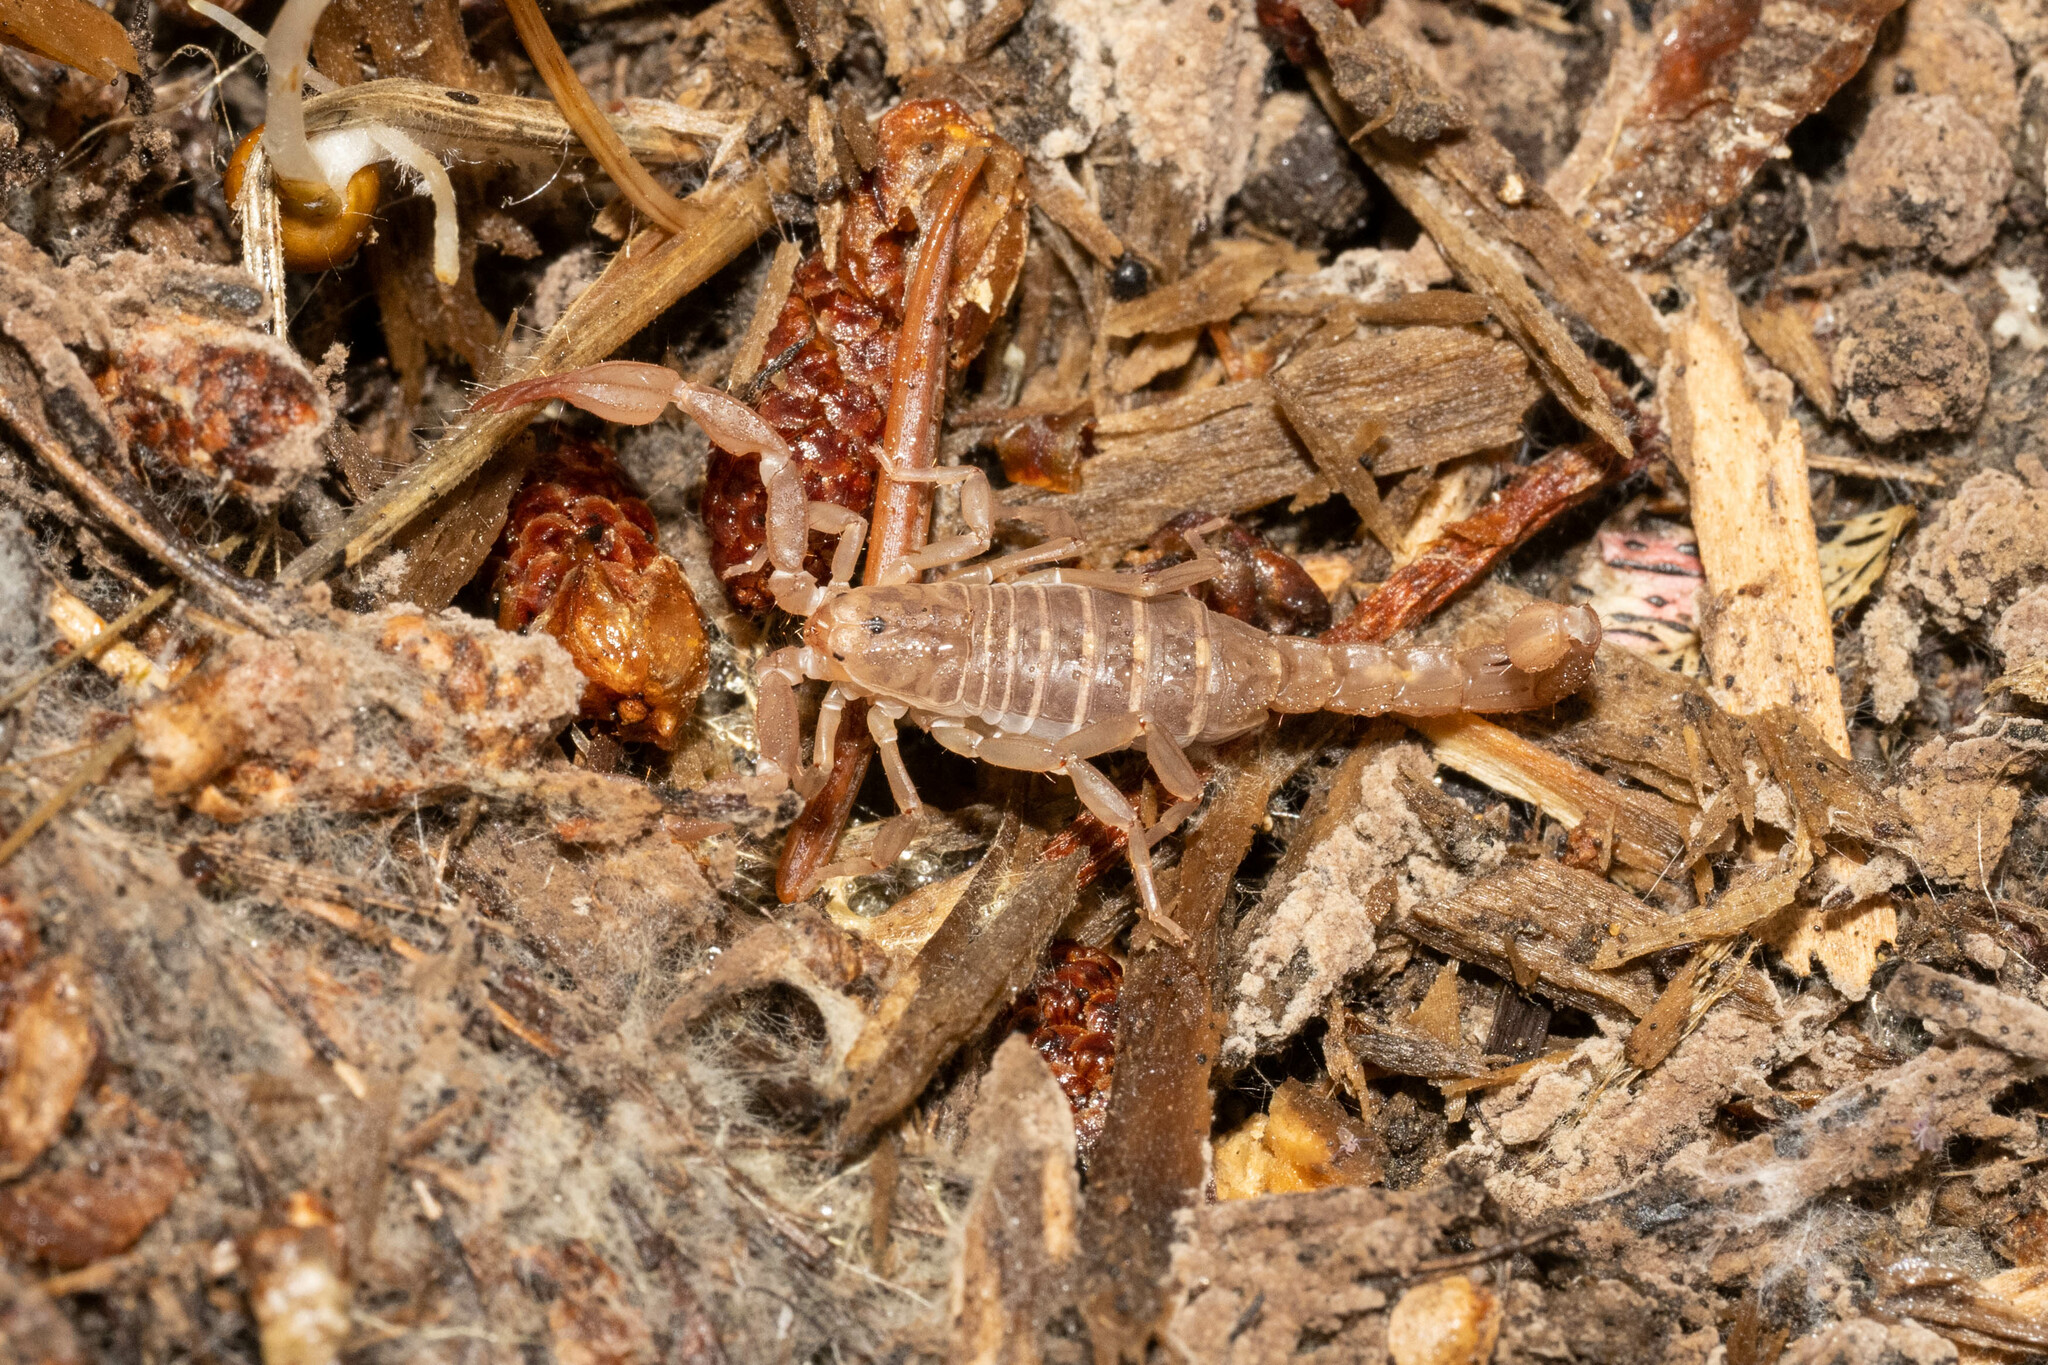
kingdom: Animalia
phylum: Arthropoda
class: Arachnida
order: Scorpiones
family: Vaejovidae
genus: Graemeloweus
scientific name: Graemeloweus glimmei
